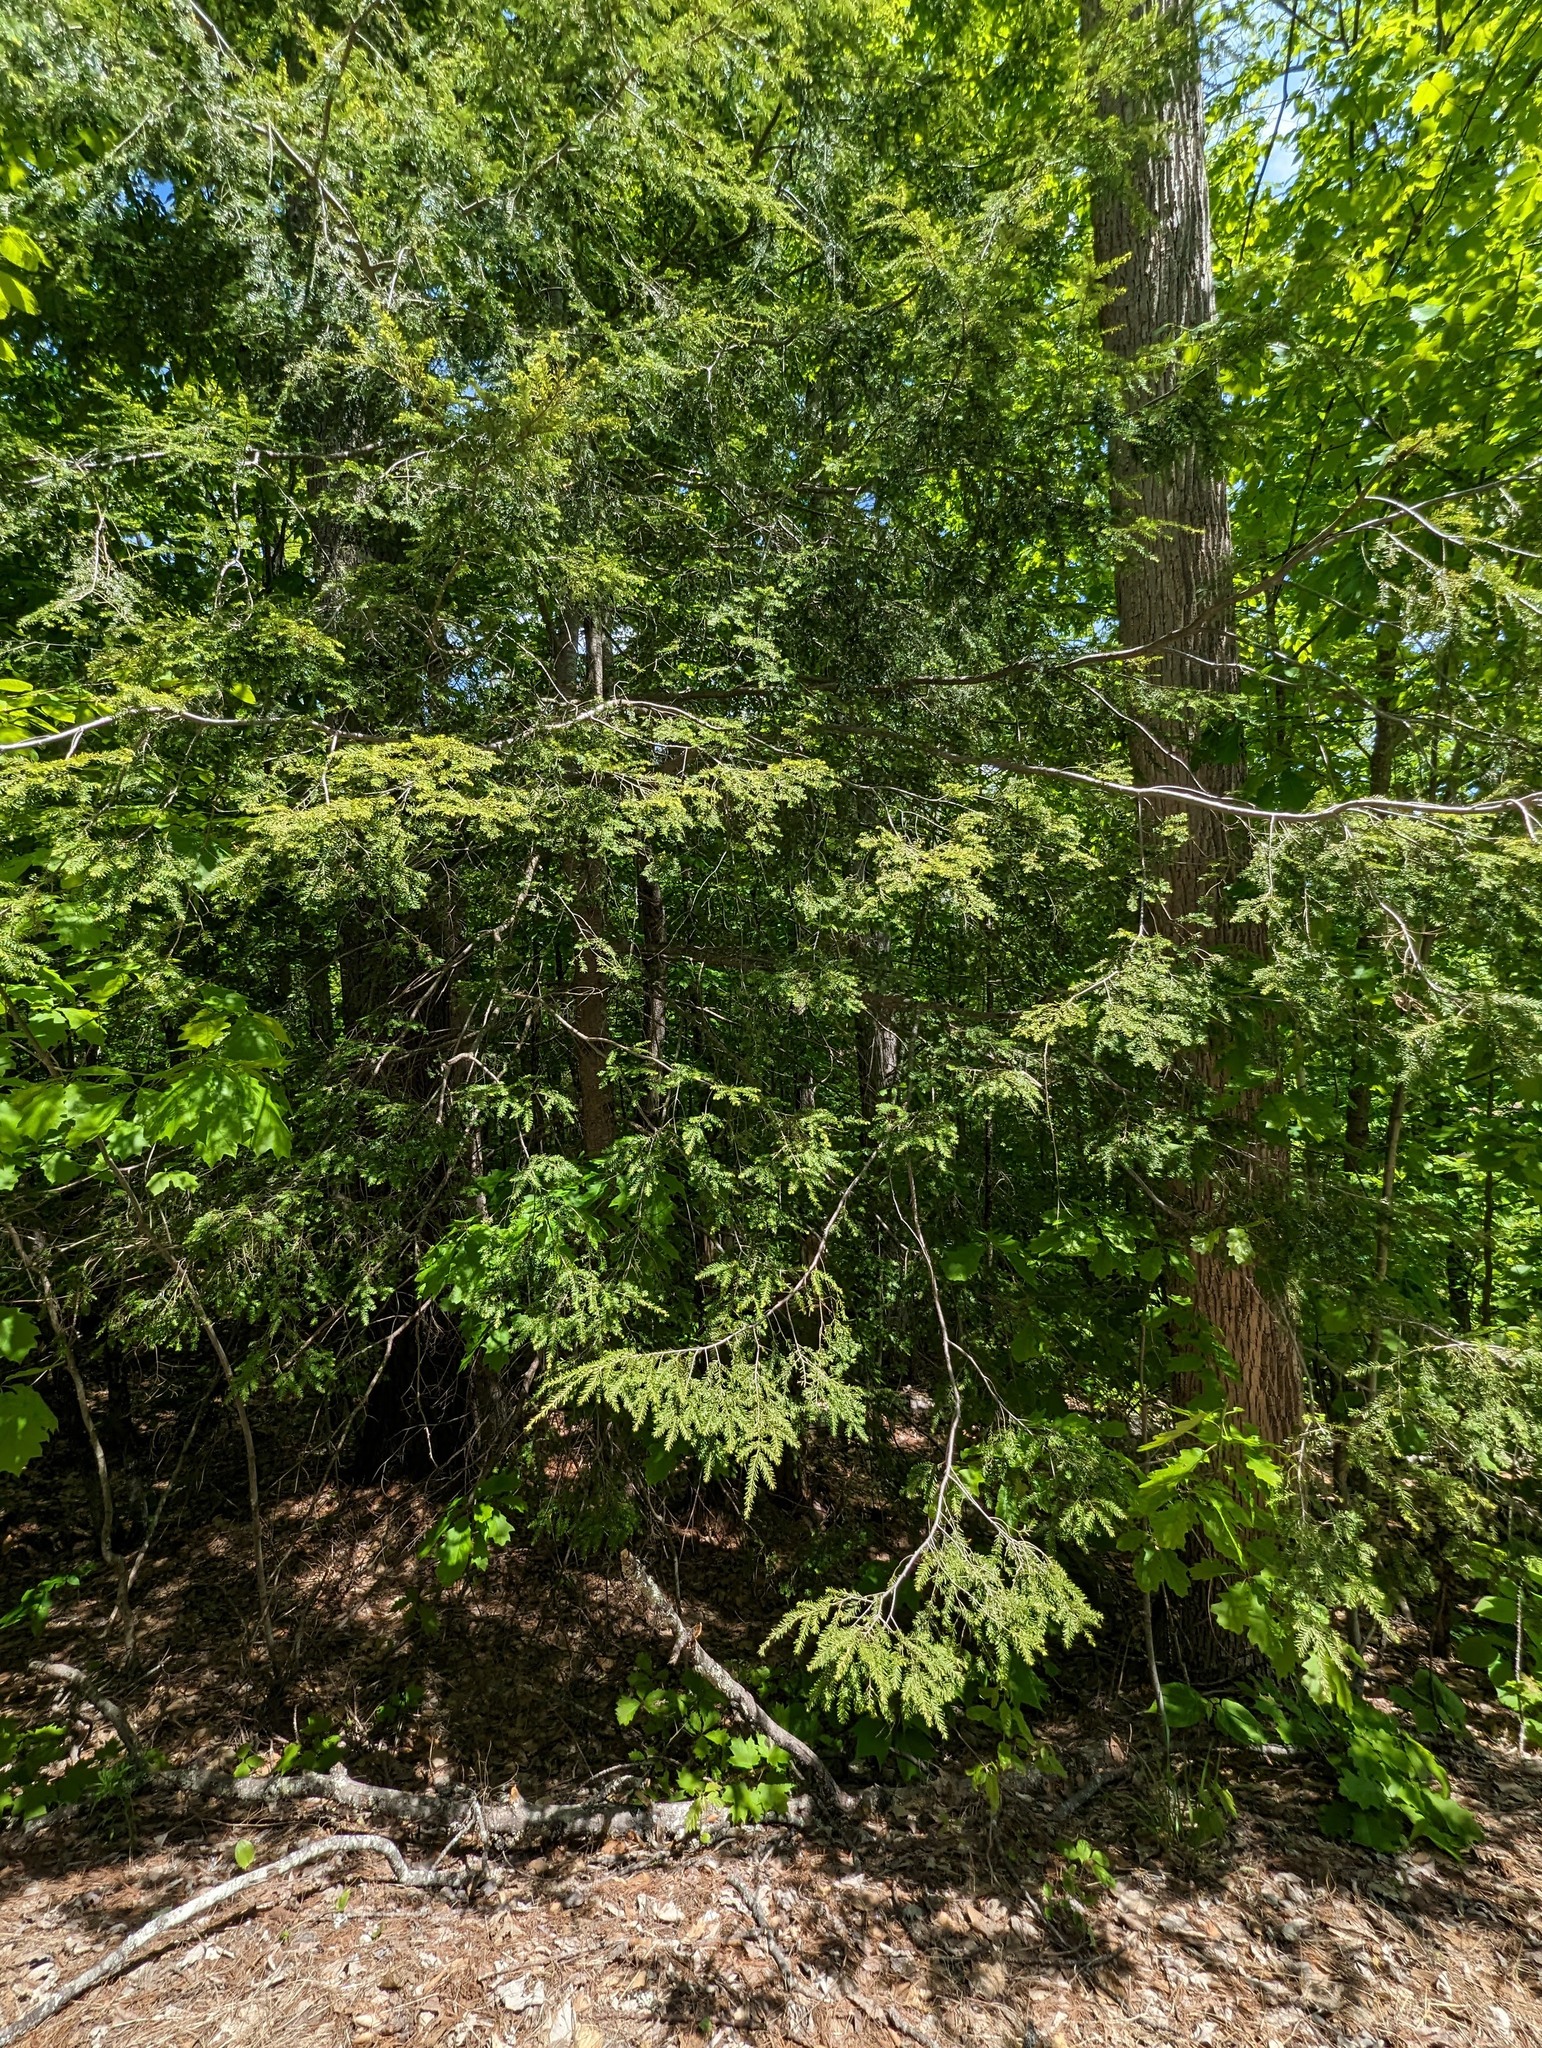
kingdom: Plantae
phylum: Tracheophyta
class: Pinopsida
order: Pinales
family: Pinaceae
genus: Tsuga
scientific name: Tsuga canadensis
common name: Eastern hemlock
